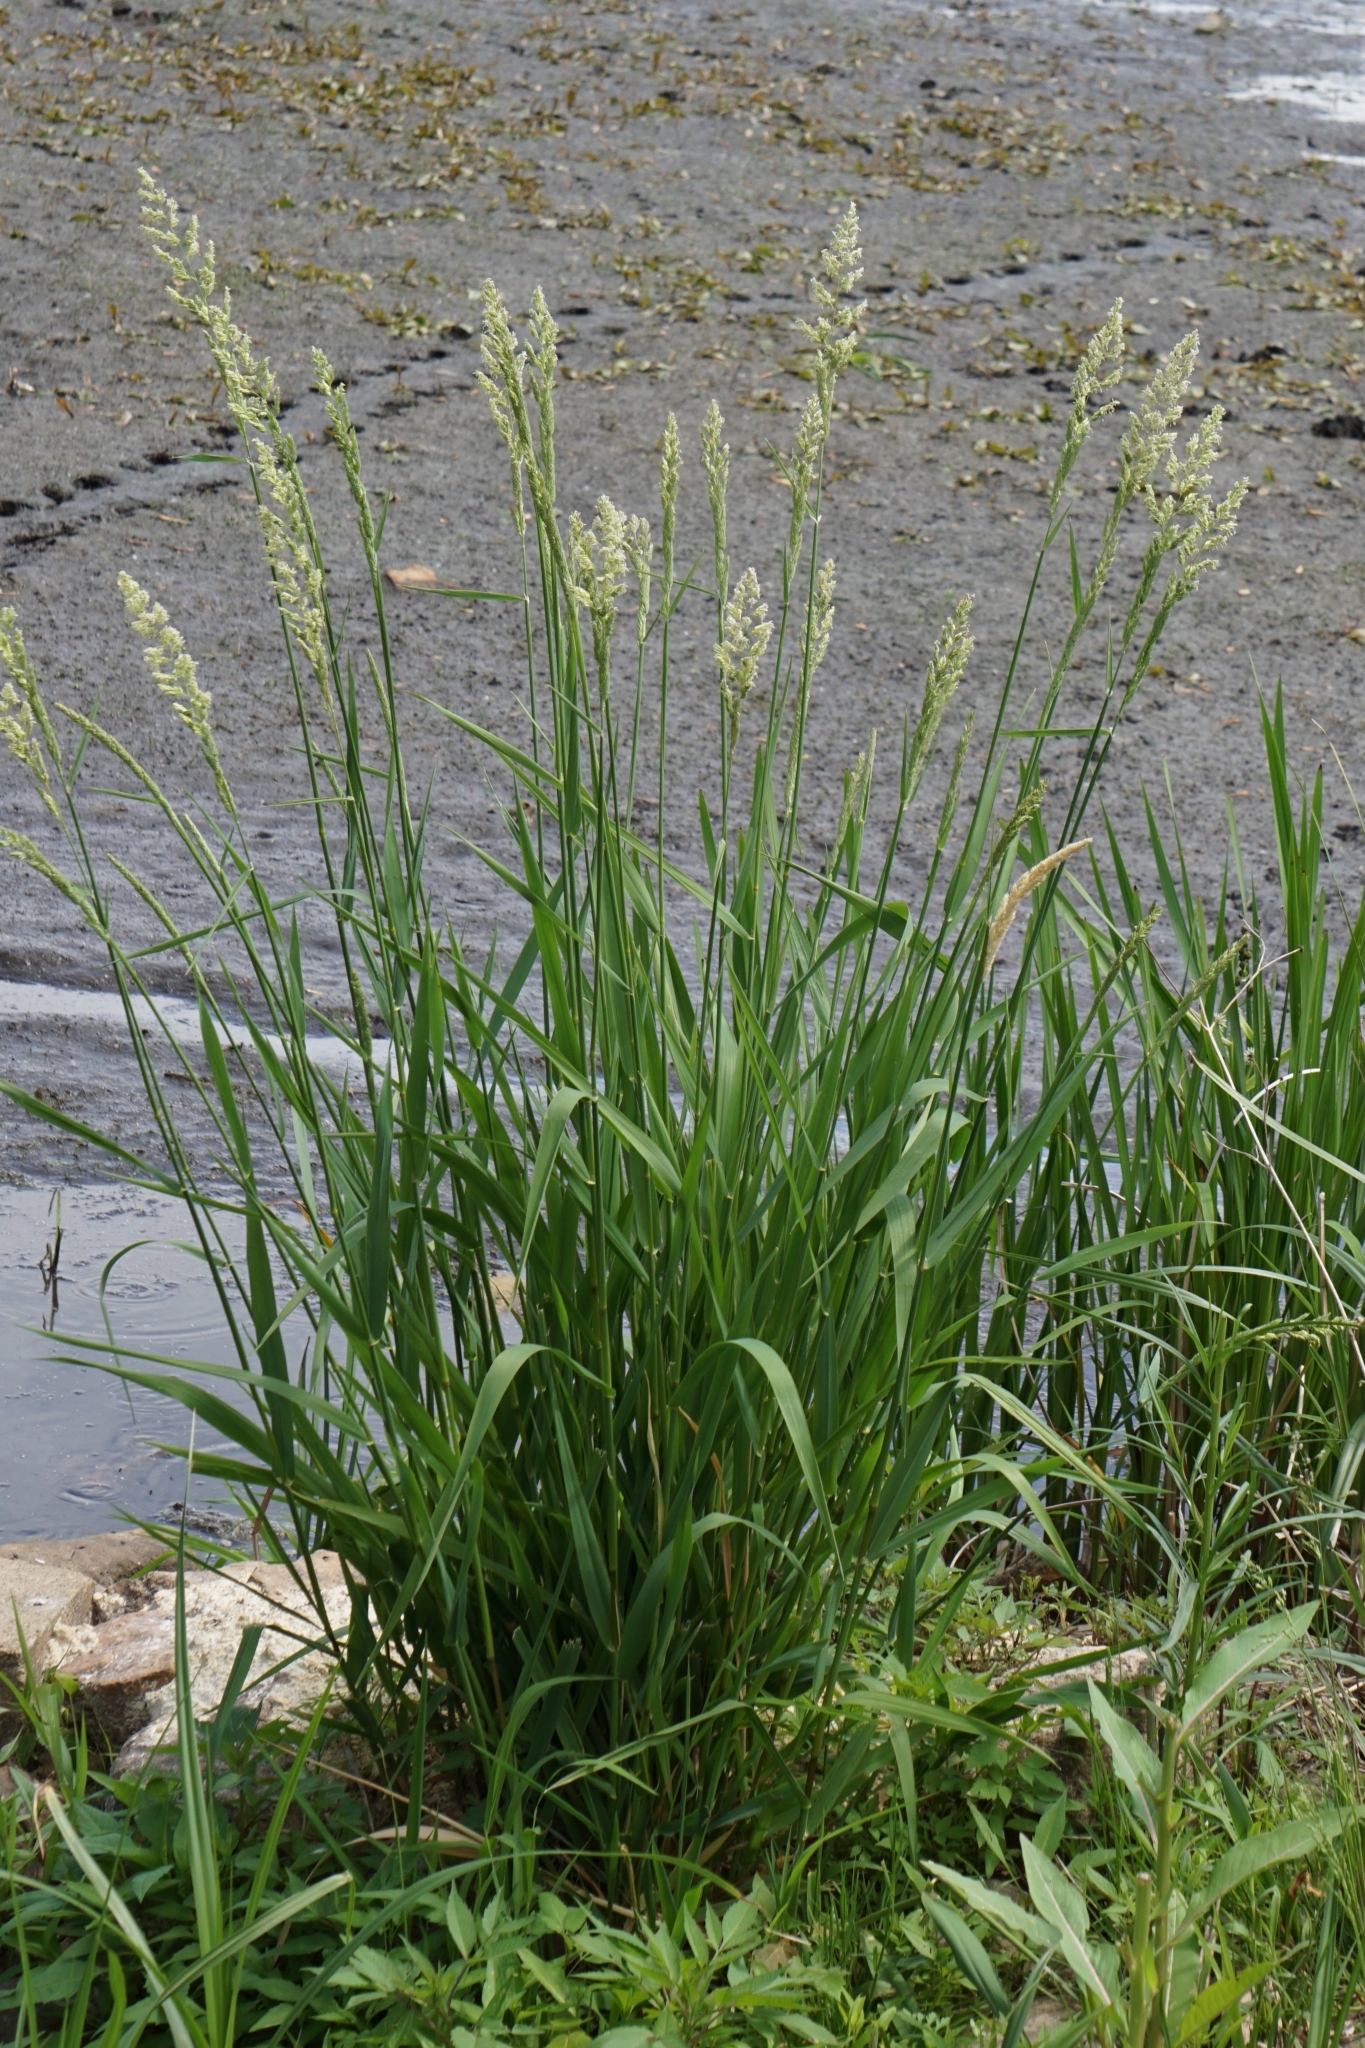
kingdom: Plantae
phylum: Tracheophyta
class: Liliopsida
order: Poales
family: Poaceae
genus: Phalaris
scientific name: Phalaris arundinacea
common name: Reed canary-grass
